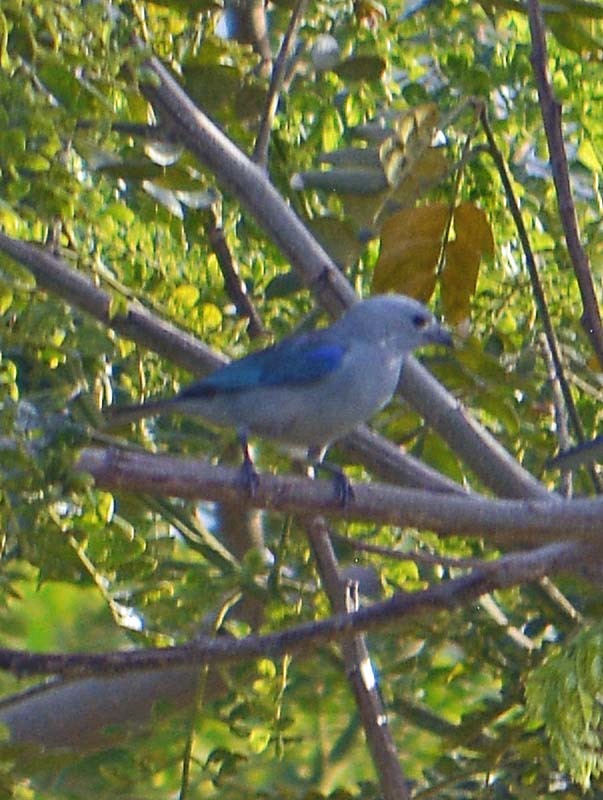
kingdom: Animalia
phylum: Chordata
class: Aves
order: Passeriformes
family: Thraupidae
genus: Thraupis
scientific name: Thraupis episcopus
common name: Blue-grey tanager
